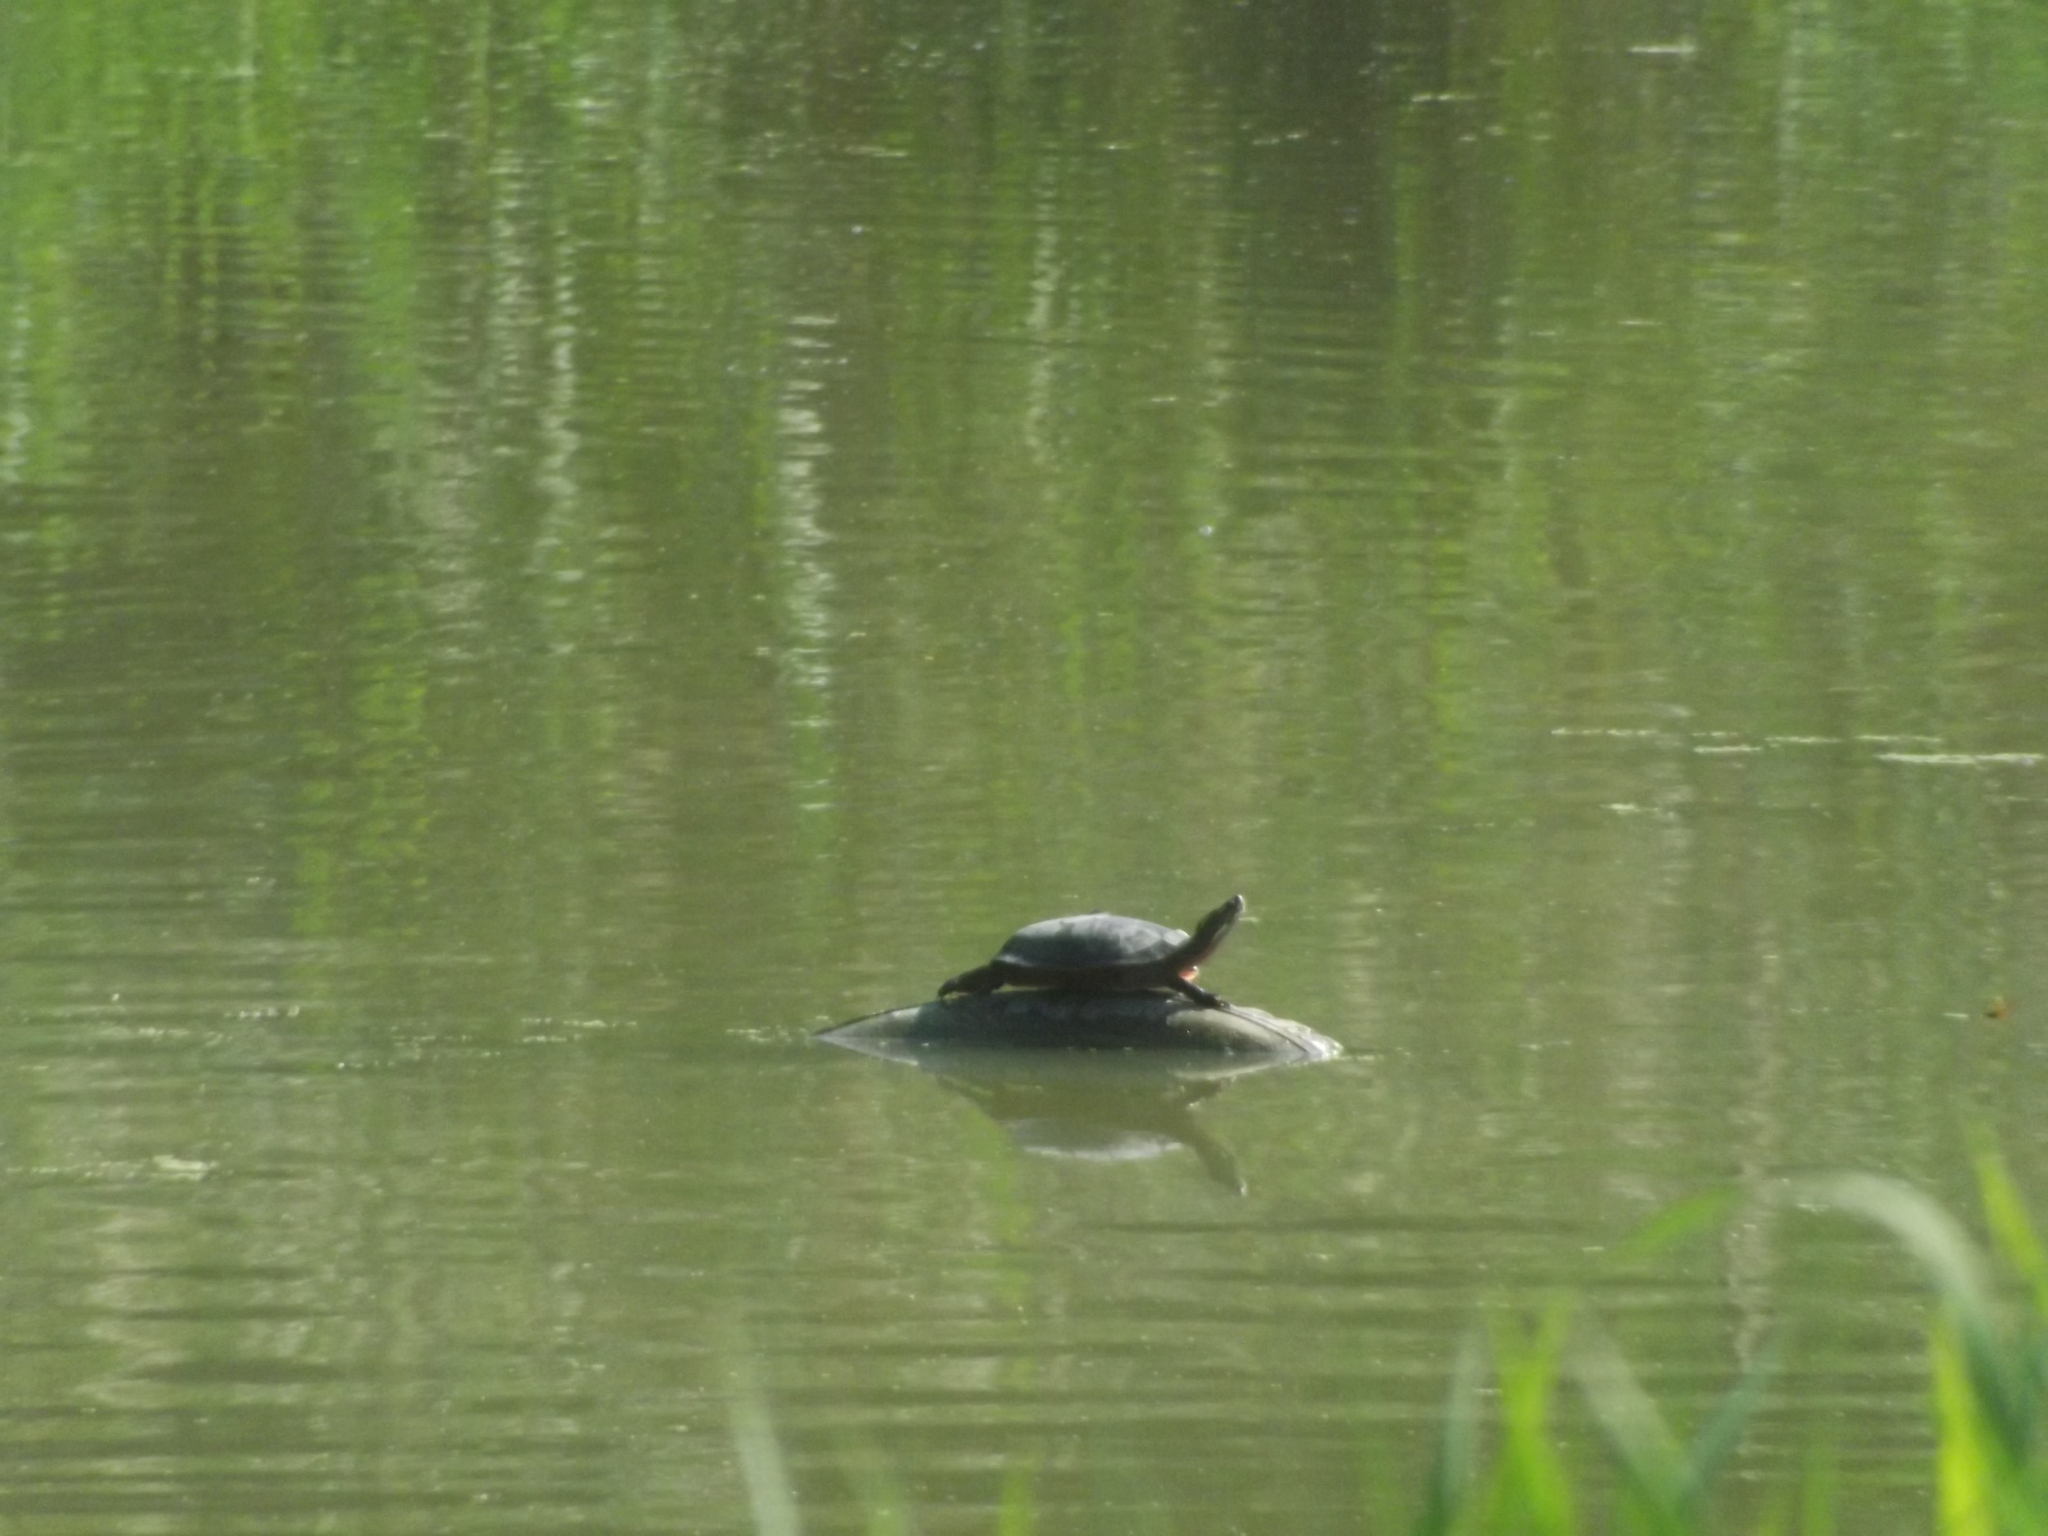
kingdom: Animalia
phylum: Chordata
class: Testudines
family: Emydidae
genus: Chrysemys
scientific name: Chrysemys picta
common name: Painted turtle
